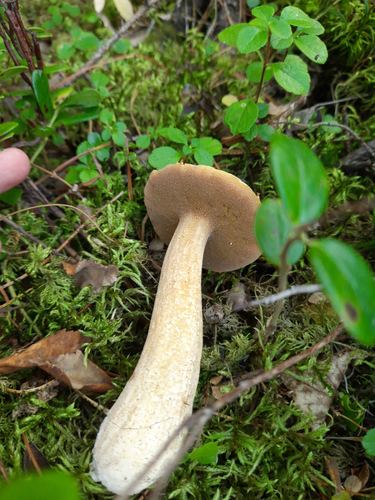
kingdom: Fungi
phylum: Basidiomycota
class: Agaricomycetes
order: Boletales
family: Suillaceae
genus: Suillus
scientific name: Suillus punctipes
